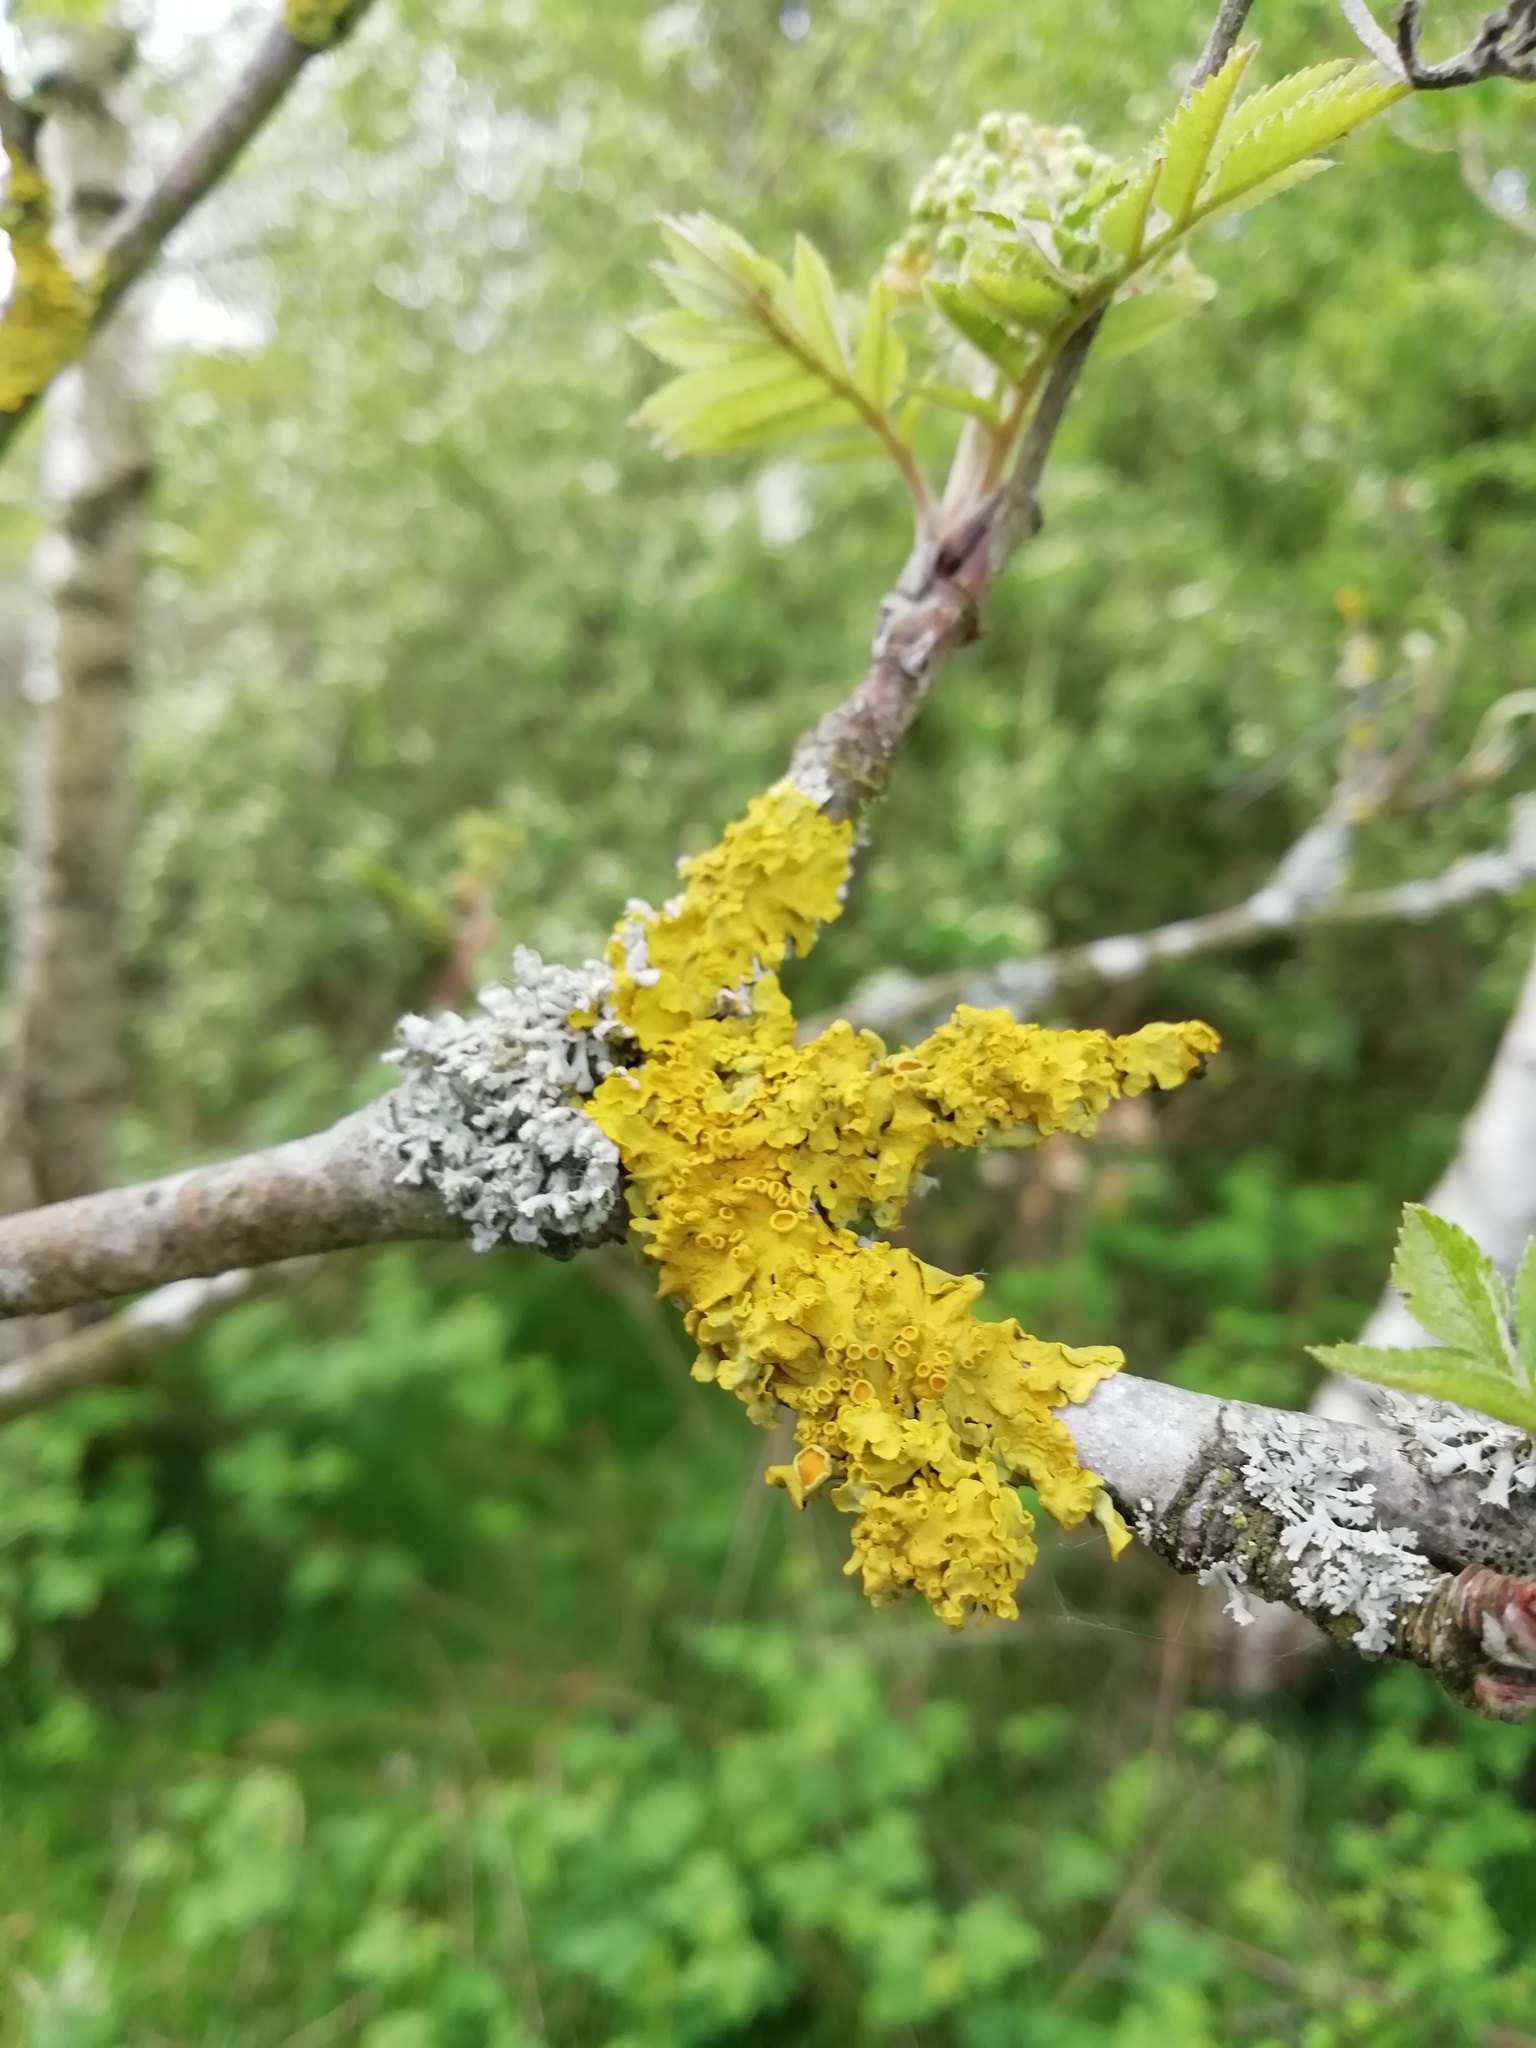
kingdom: Fungi
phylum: Ascomycota
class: Lecanoromycetes
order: Teloschistales
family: Teloschistaceae
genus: Xanthoria
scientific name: Xanthoria parietina
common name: Common orange lichen
